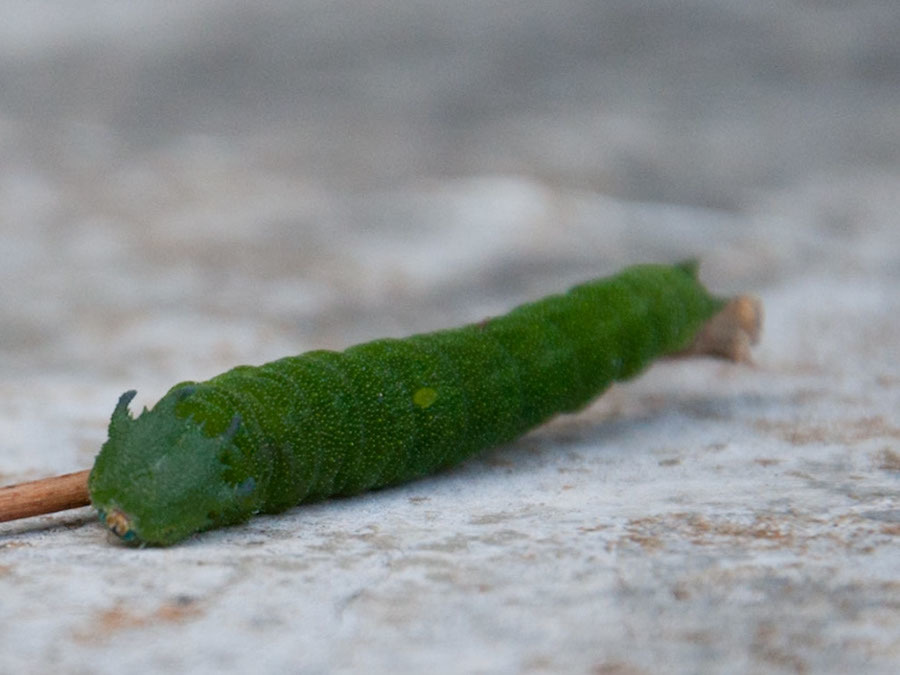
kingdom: Animalia
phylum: Arthropoda
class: Insecta
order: Lepidoptera
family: Nymphalidae
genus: Charaxes
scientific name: Charaxes brutus
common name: White-barred charaxes
